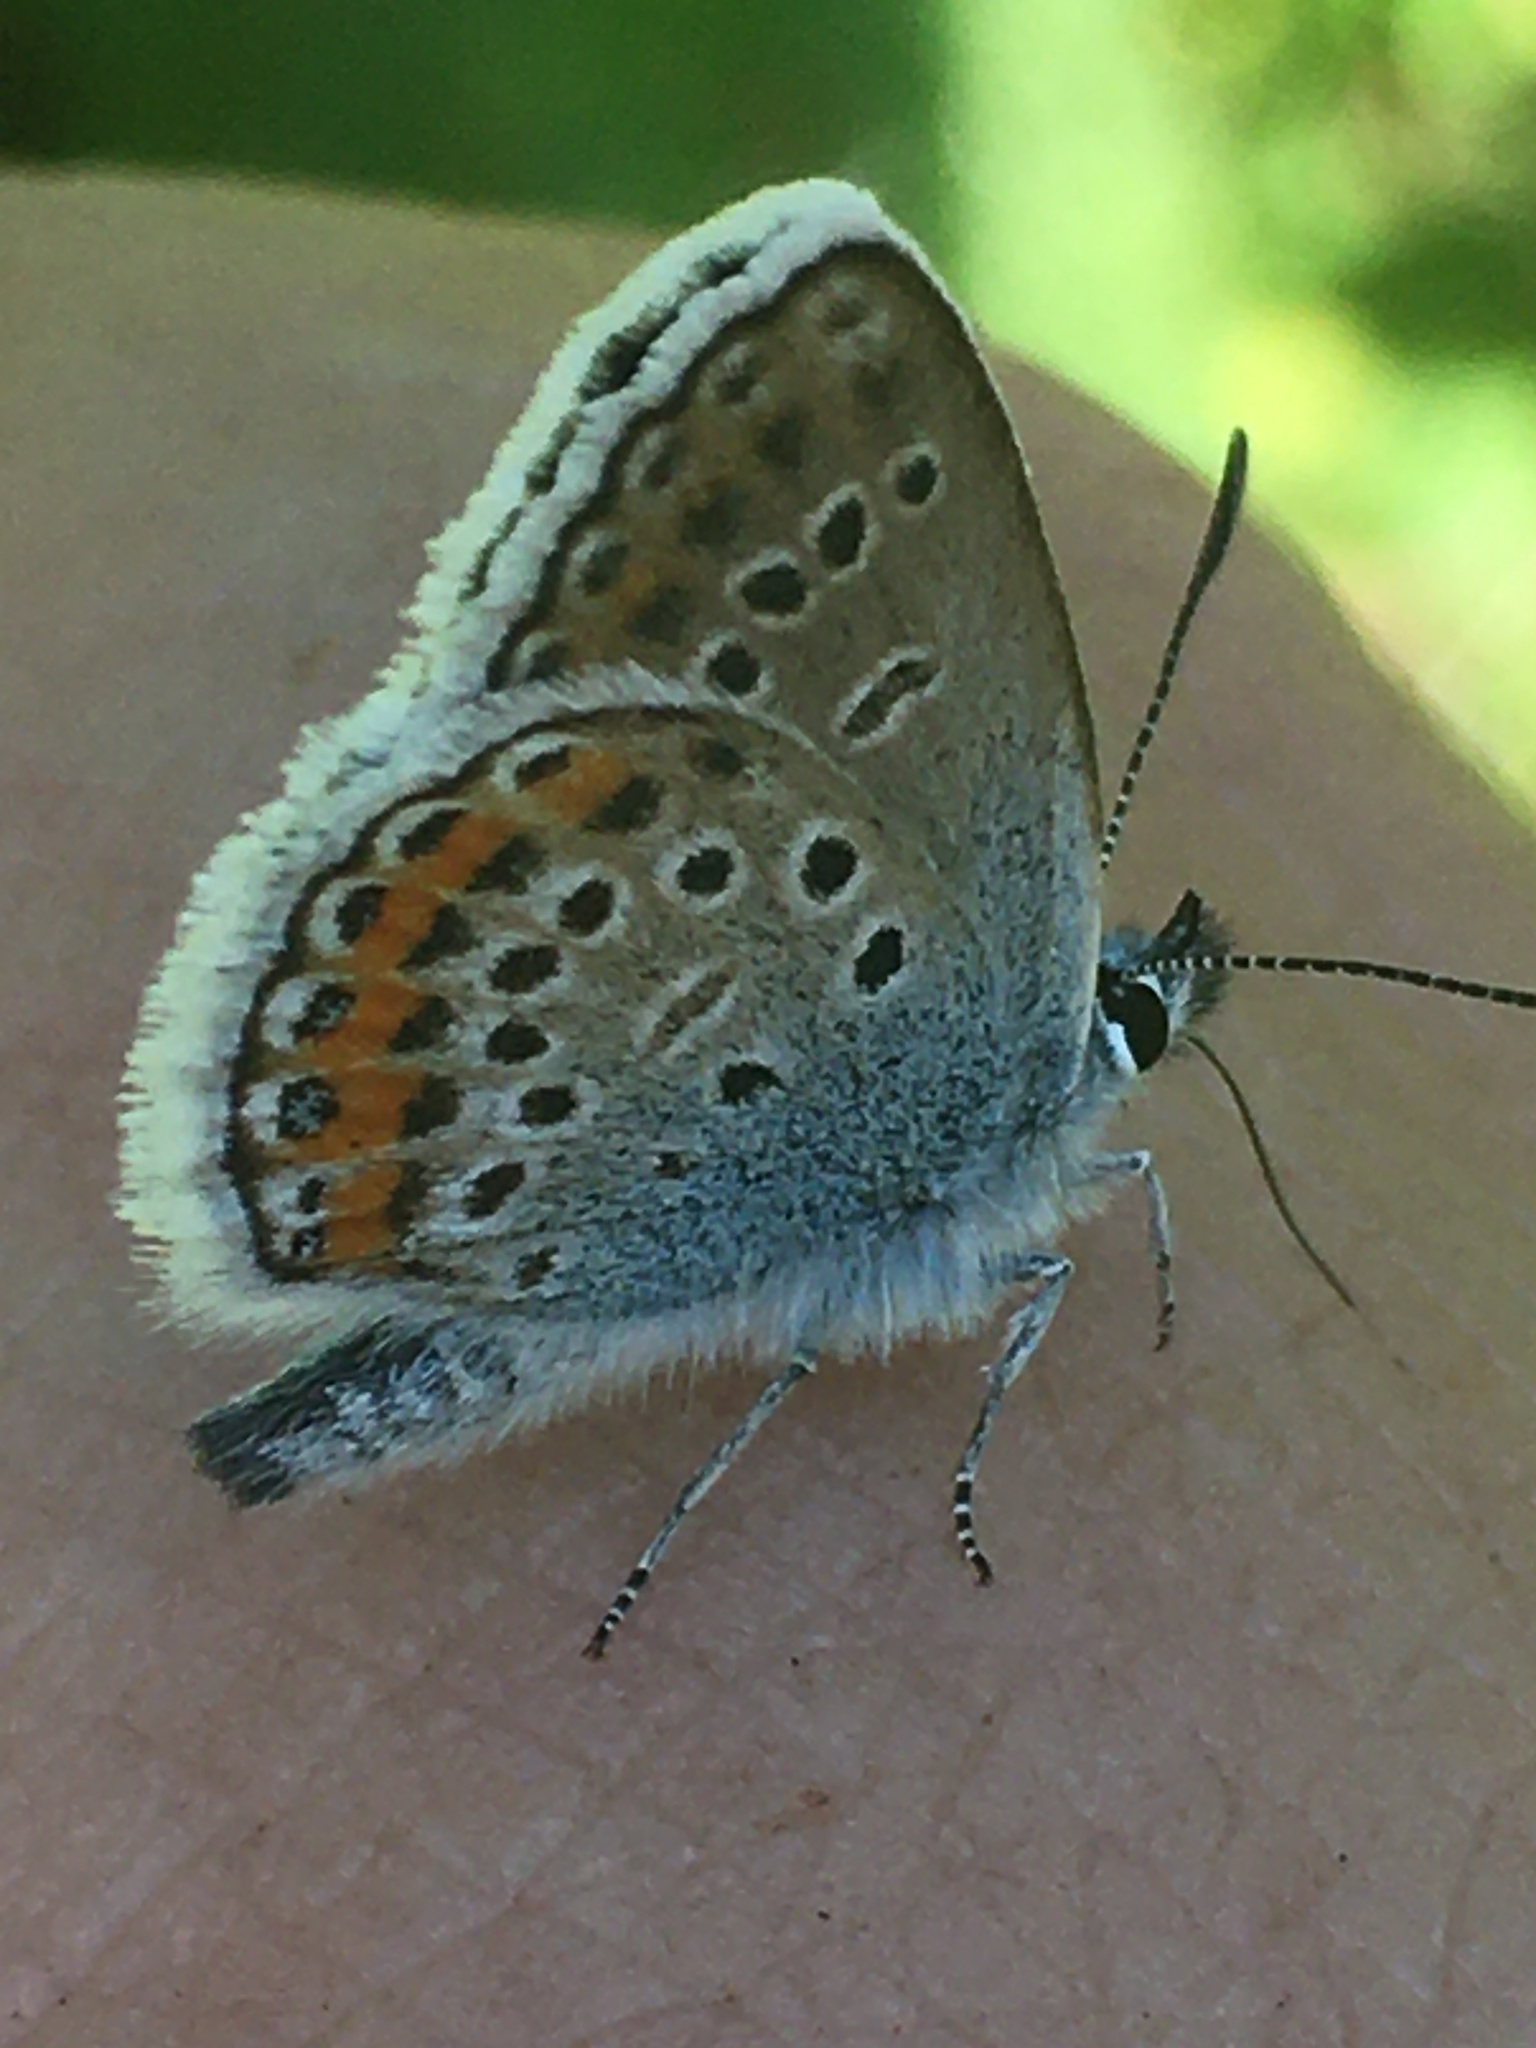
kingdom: Animalia
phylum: Arthropoda
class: Insecta
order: Lepidoptera
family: Lycaenidae
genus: Plebejus
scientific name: Plebejus argus
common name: Silver-studded blue
